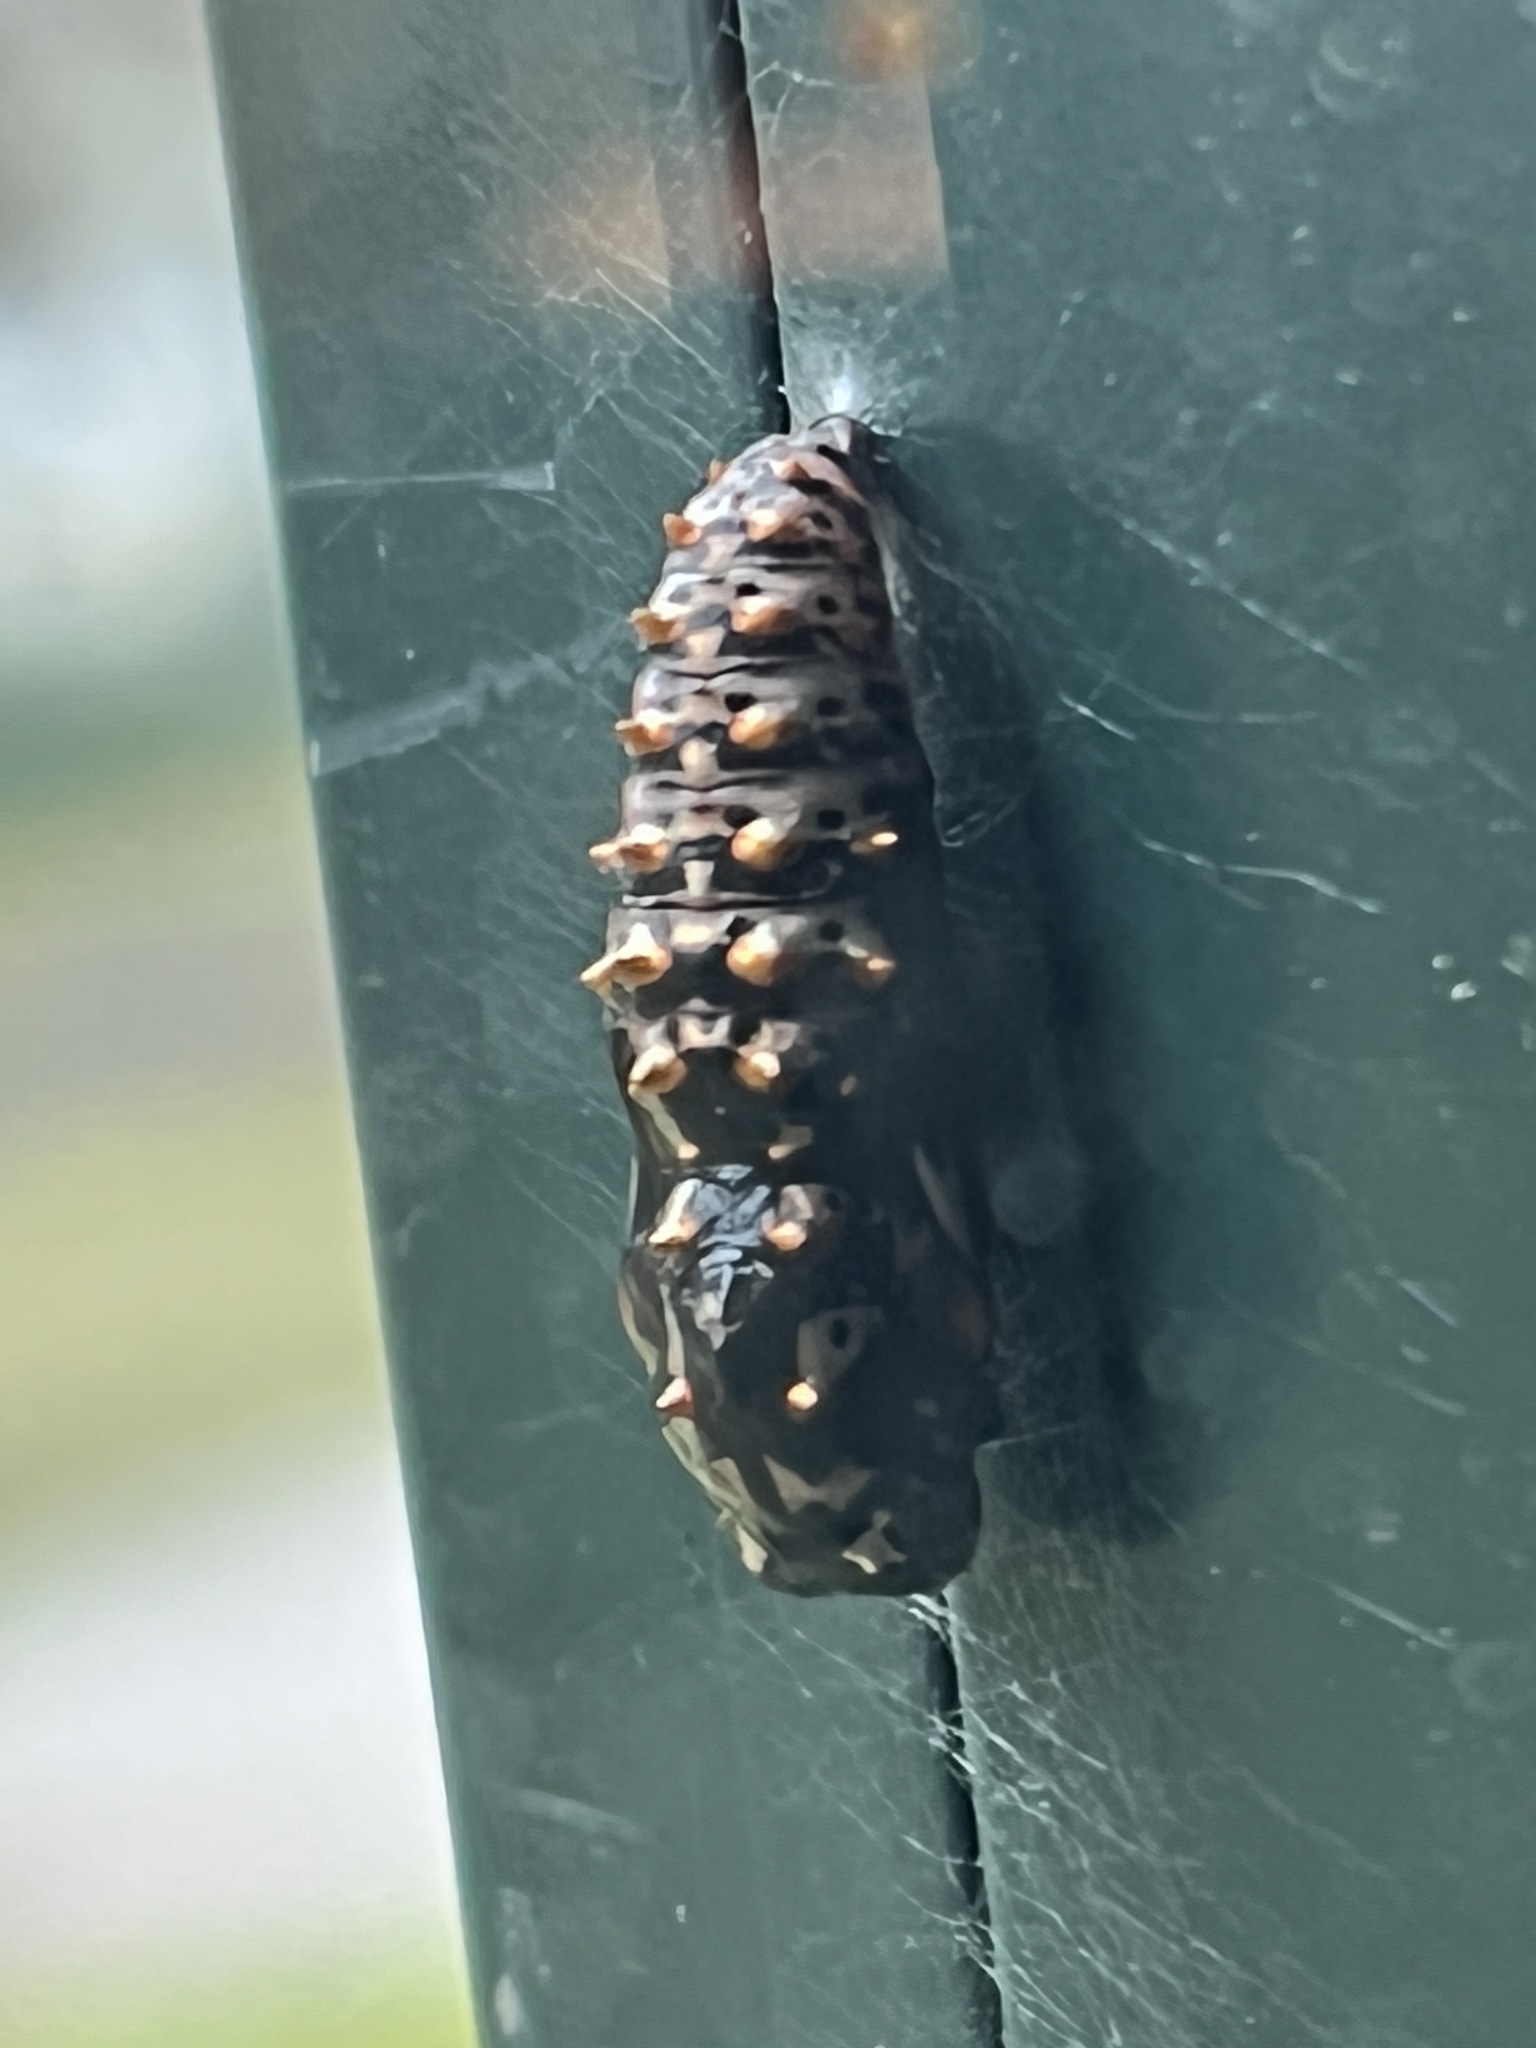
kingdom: Animalia
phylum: Arthropoda
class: Insecta
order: Lepidoptera
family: Nymphalidae
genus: Euptoieta
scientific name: Euptoieta claudia
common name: Variegated fritillary
